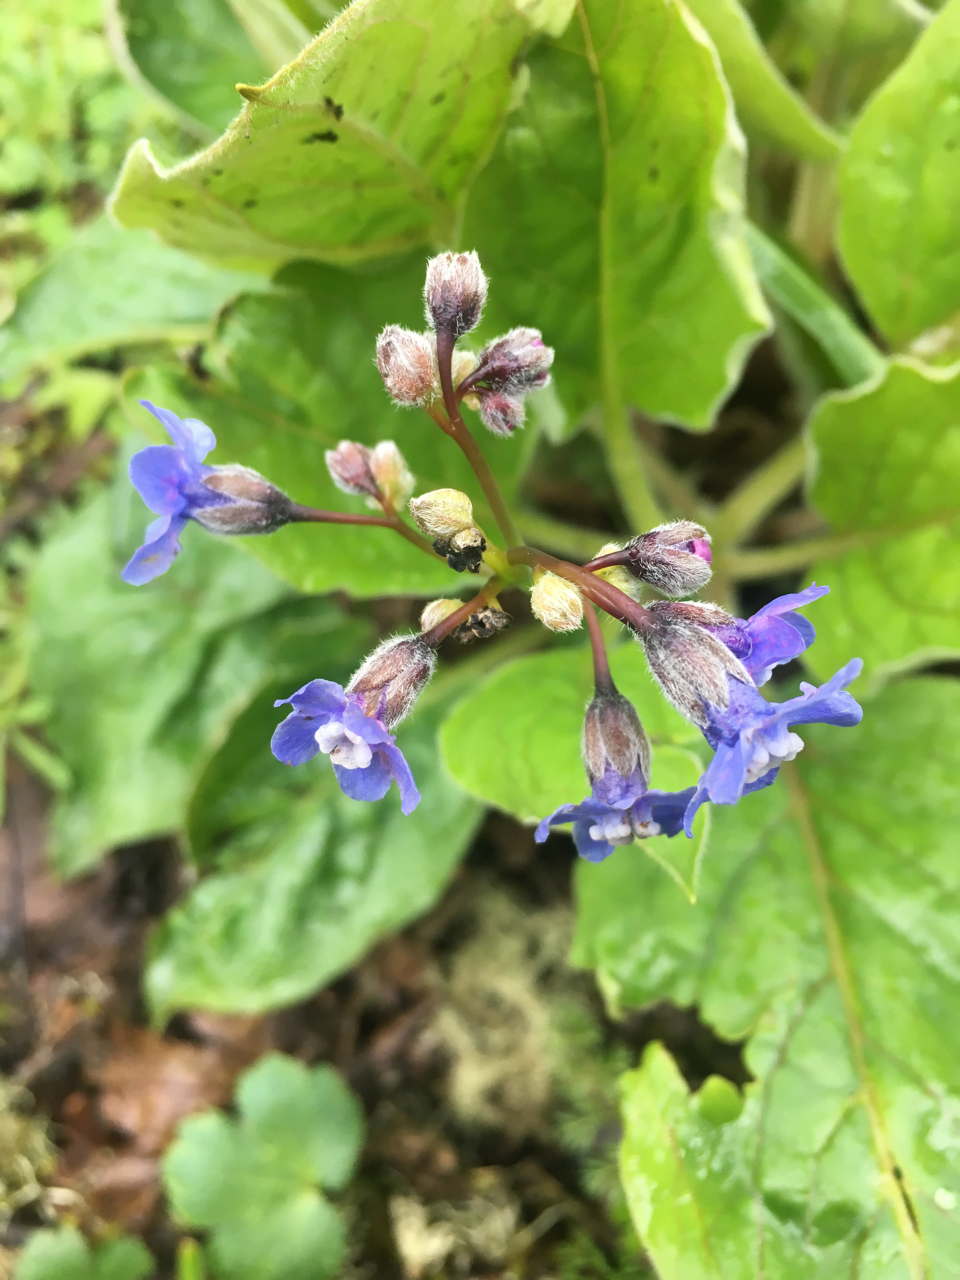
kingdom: Plantae
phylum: Tracheophyta
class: Magnoliopsida
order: Boraginales
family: Boraginaceae
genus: Adelinia
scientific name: Adelinia grande
